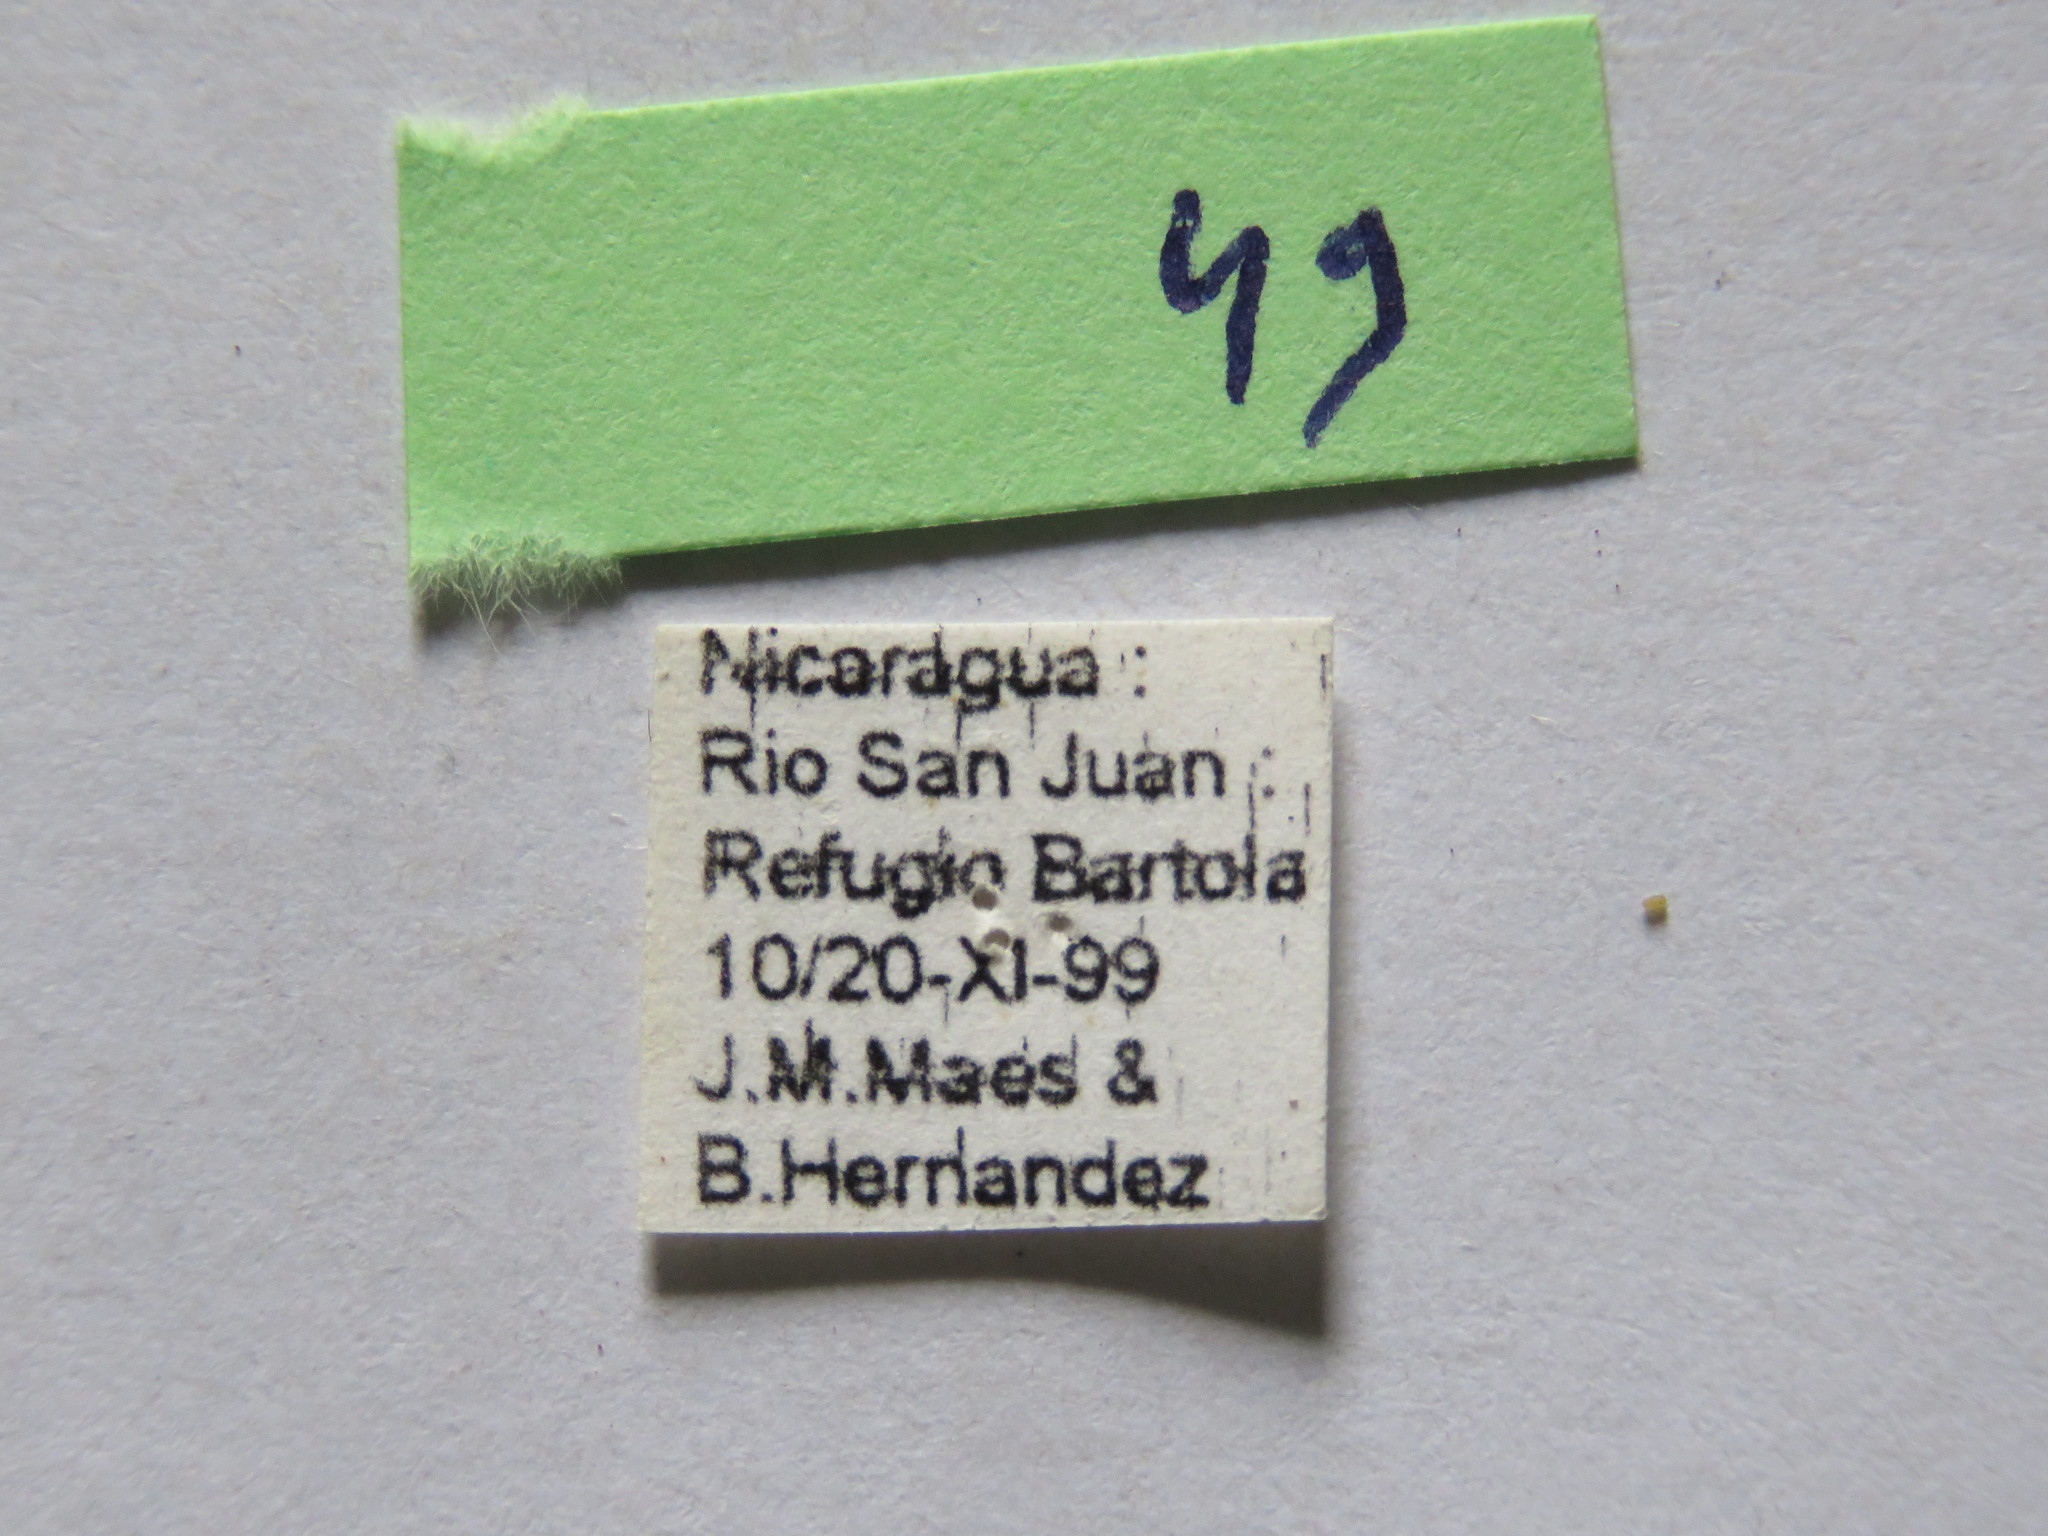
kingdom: Animalia
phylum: Arthropoda
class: Insecta
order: Hemiptera
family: Coreidae
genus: Paryphes
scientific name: Paryphes blandus
